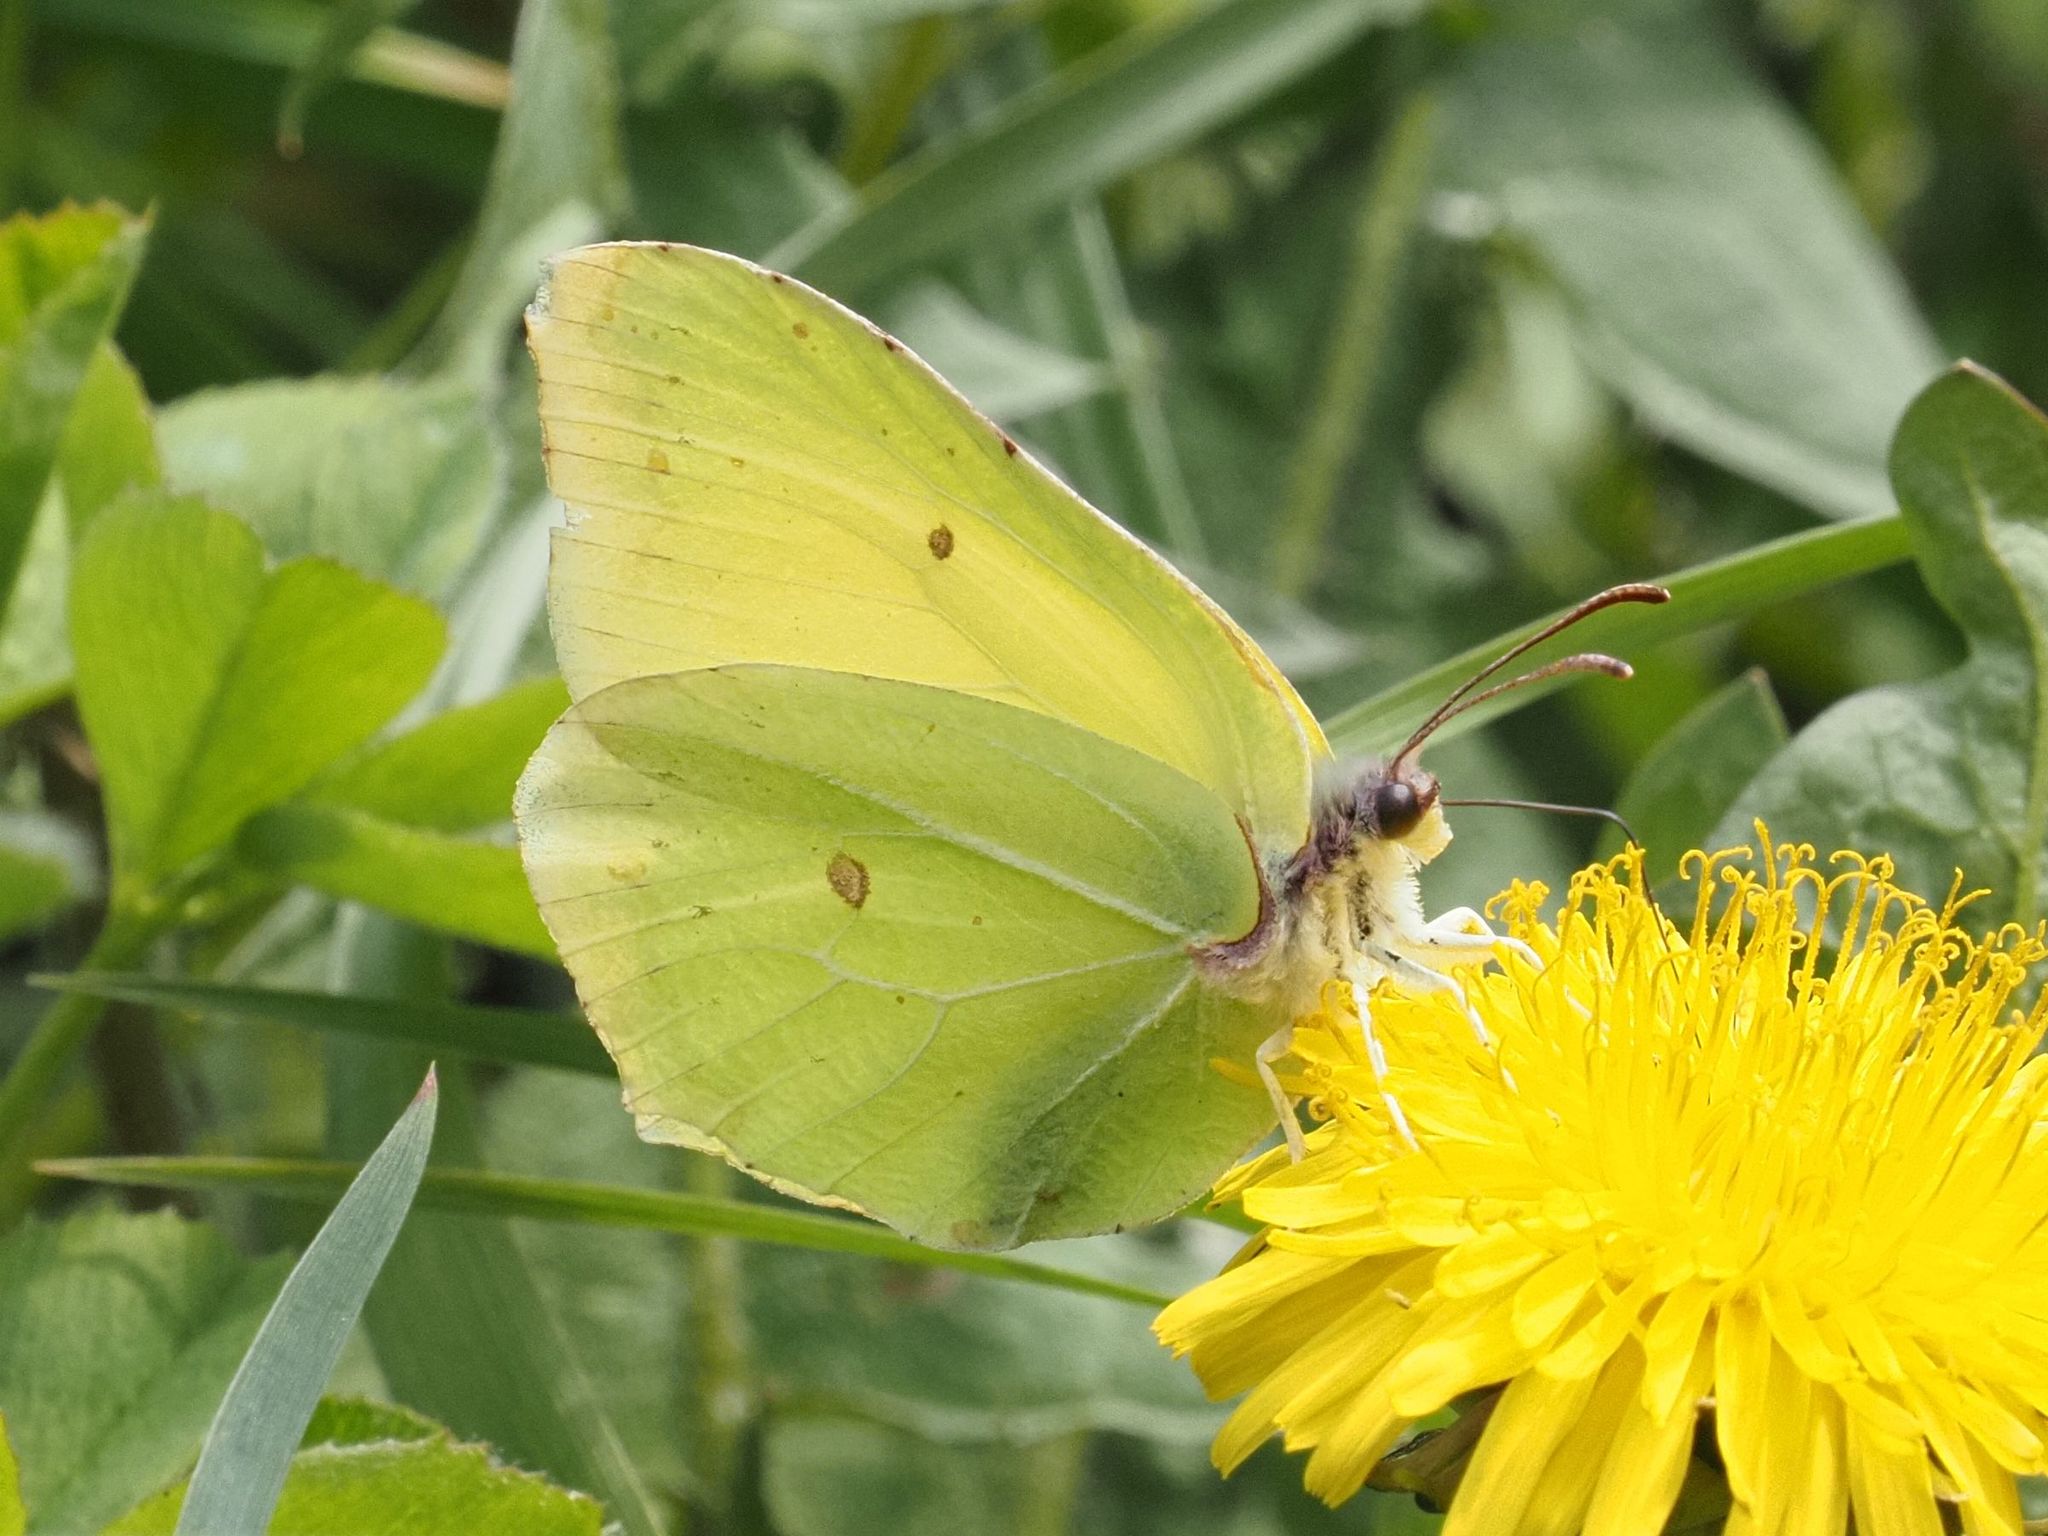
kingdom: Animalia
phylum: Arthropoda
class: Insecta
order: Lepidoptera
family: Pieridae
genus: Gonepteryx
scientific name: Gonepteryx rhamni
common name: Brimstone
